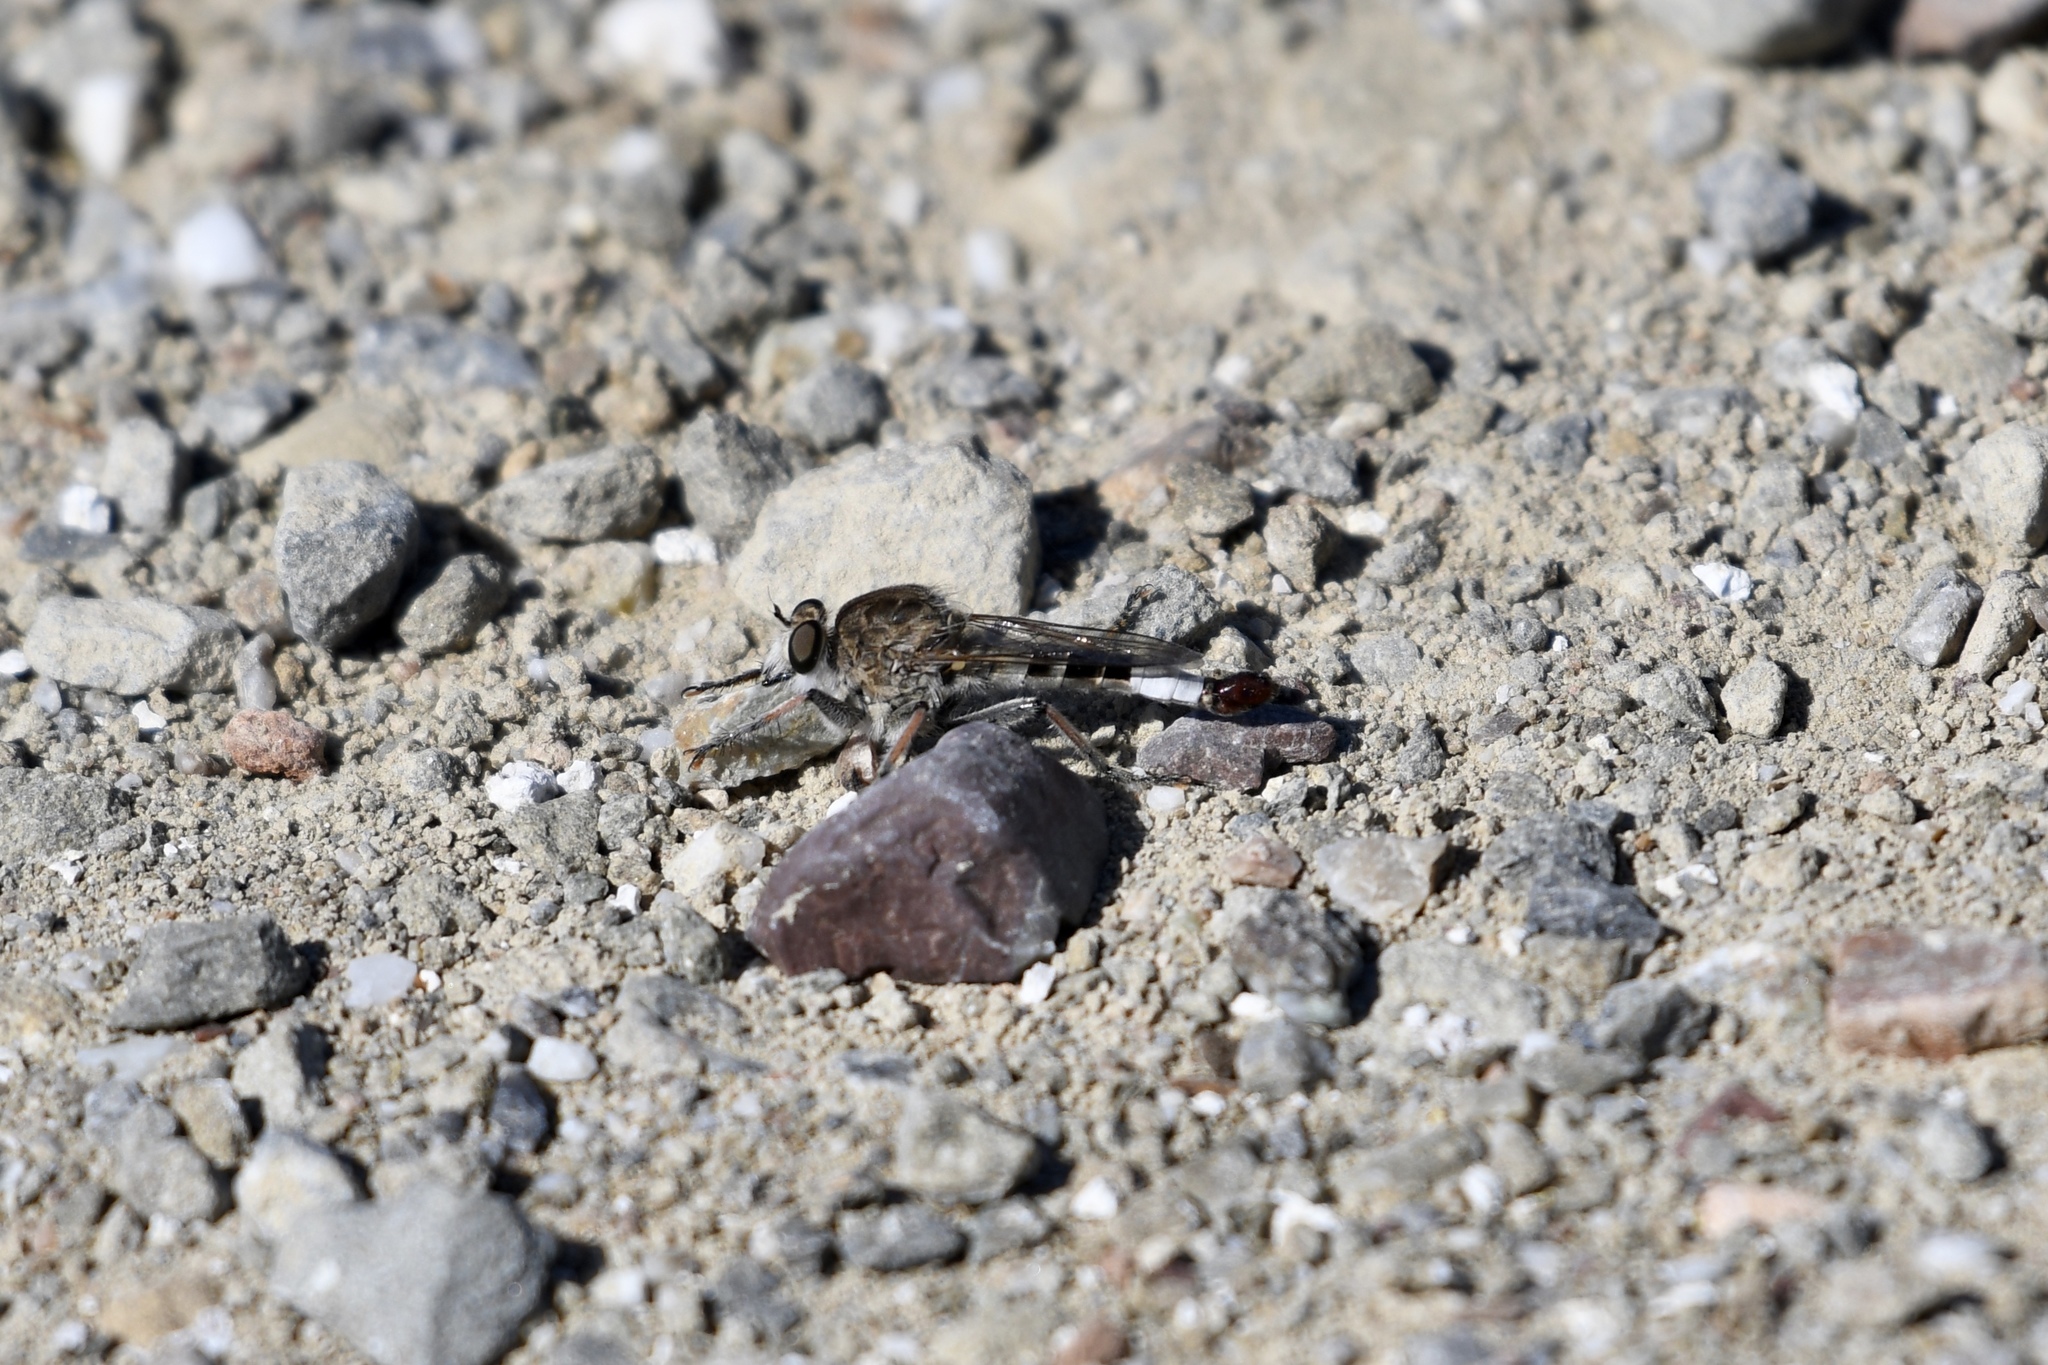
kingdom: Animalia
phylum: Arthropoda
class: Insecta
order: Diptera
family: Asilidae
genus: Efferia
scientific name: Efferia albibarbis
